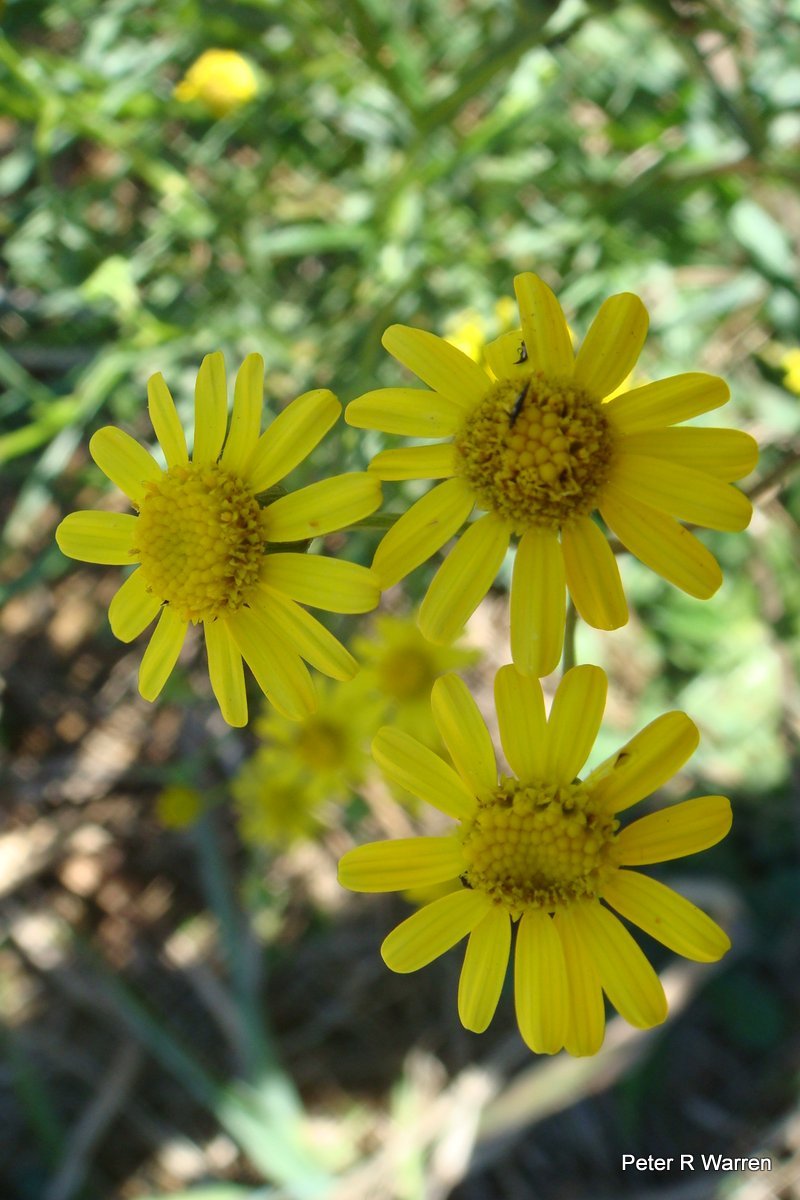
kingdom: Plantae
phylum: Tracheophyta
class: Magnoliopsida
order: Asterales
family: Asteraceae
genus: Senecio
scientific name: Senecio madagascariensis
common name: Madagascar ragwort
